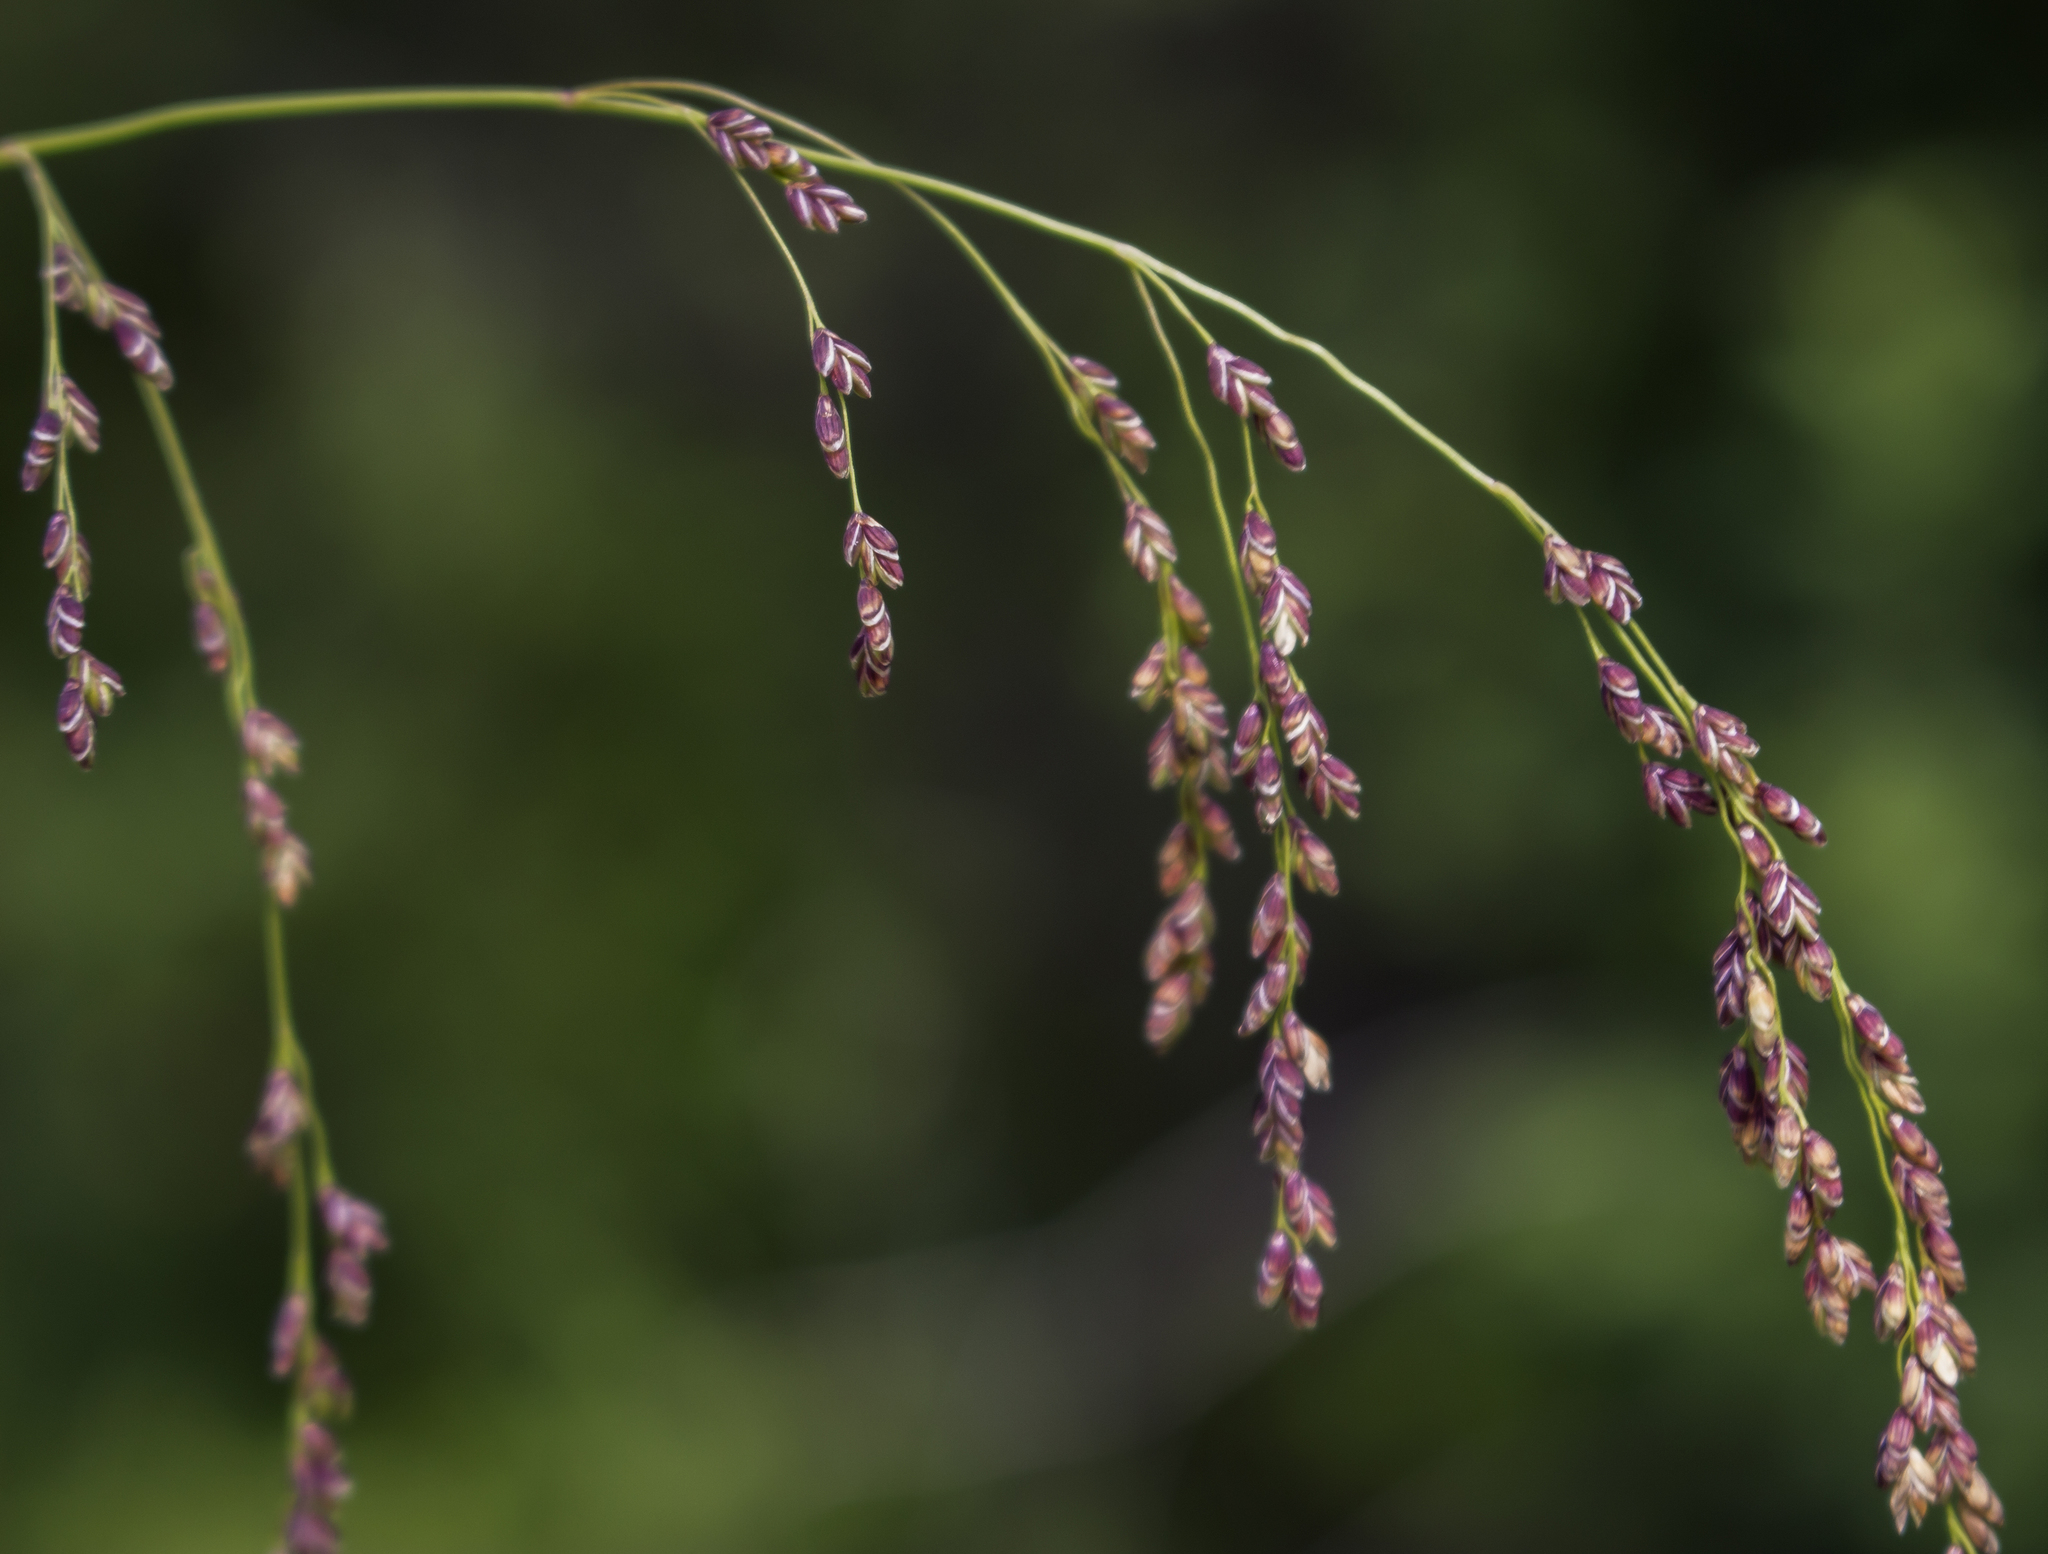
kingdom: Plantae
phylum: Tracheophyta
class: Liliopsida
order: Poales
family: Poaceae
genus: Glyceria
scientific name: Glyceria striata
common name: Fowl manna grass
